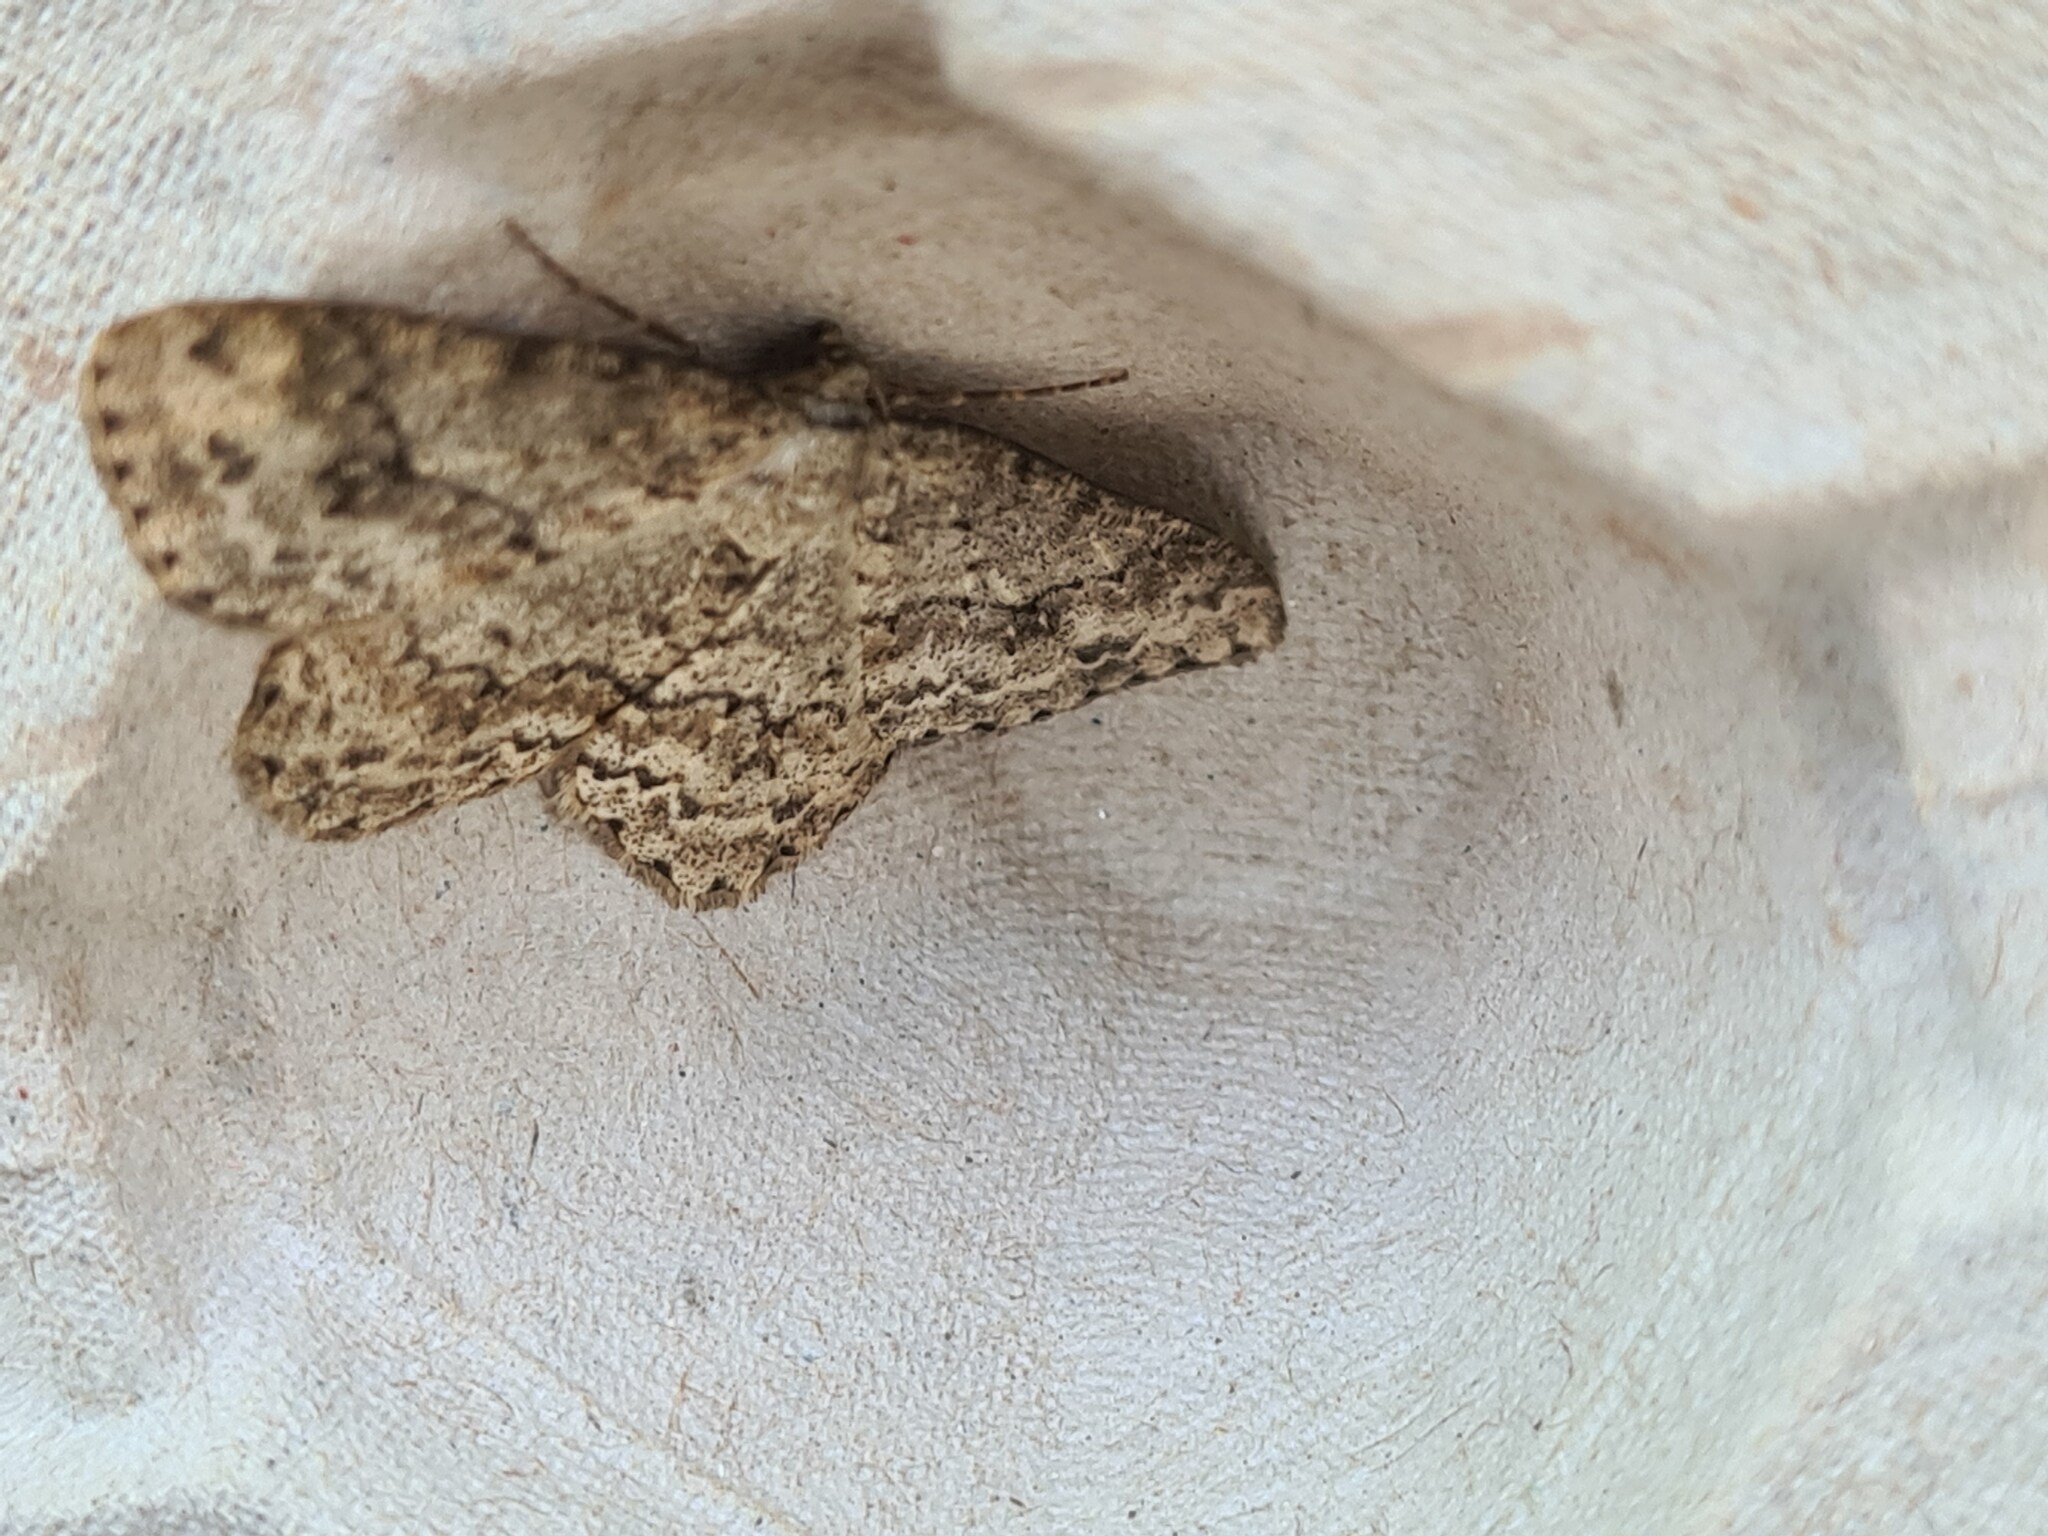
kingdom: Animalia
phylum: Arthropoda
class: Insecta
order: Lepidoptera
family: Geometridae
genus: Ectropis
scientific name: Ectropis crepuscularia
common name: Engrailed
